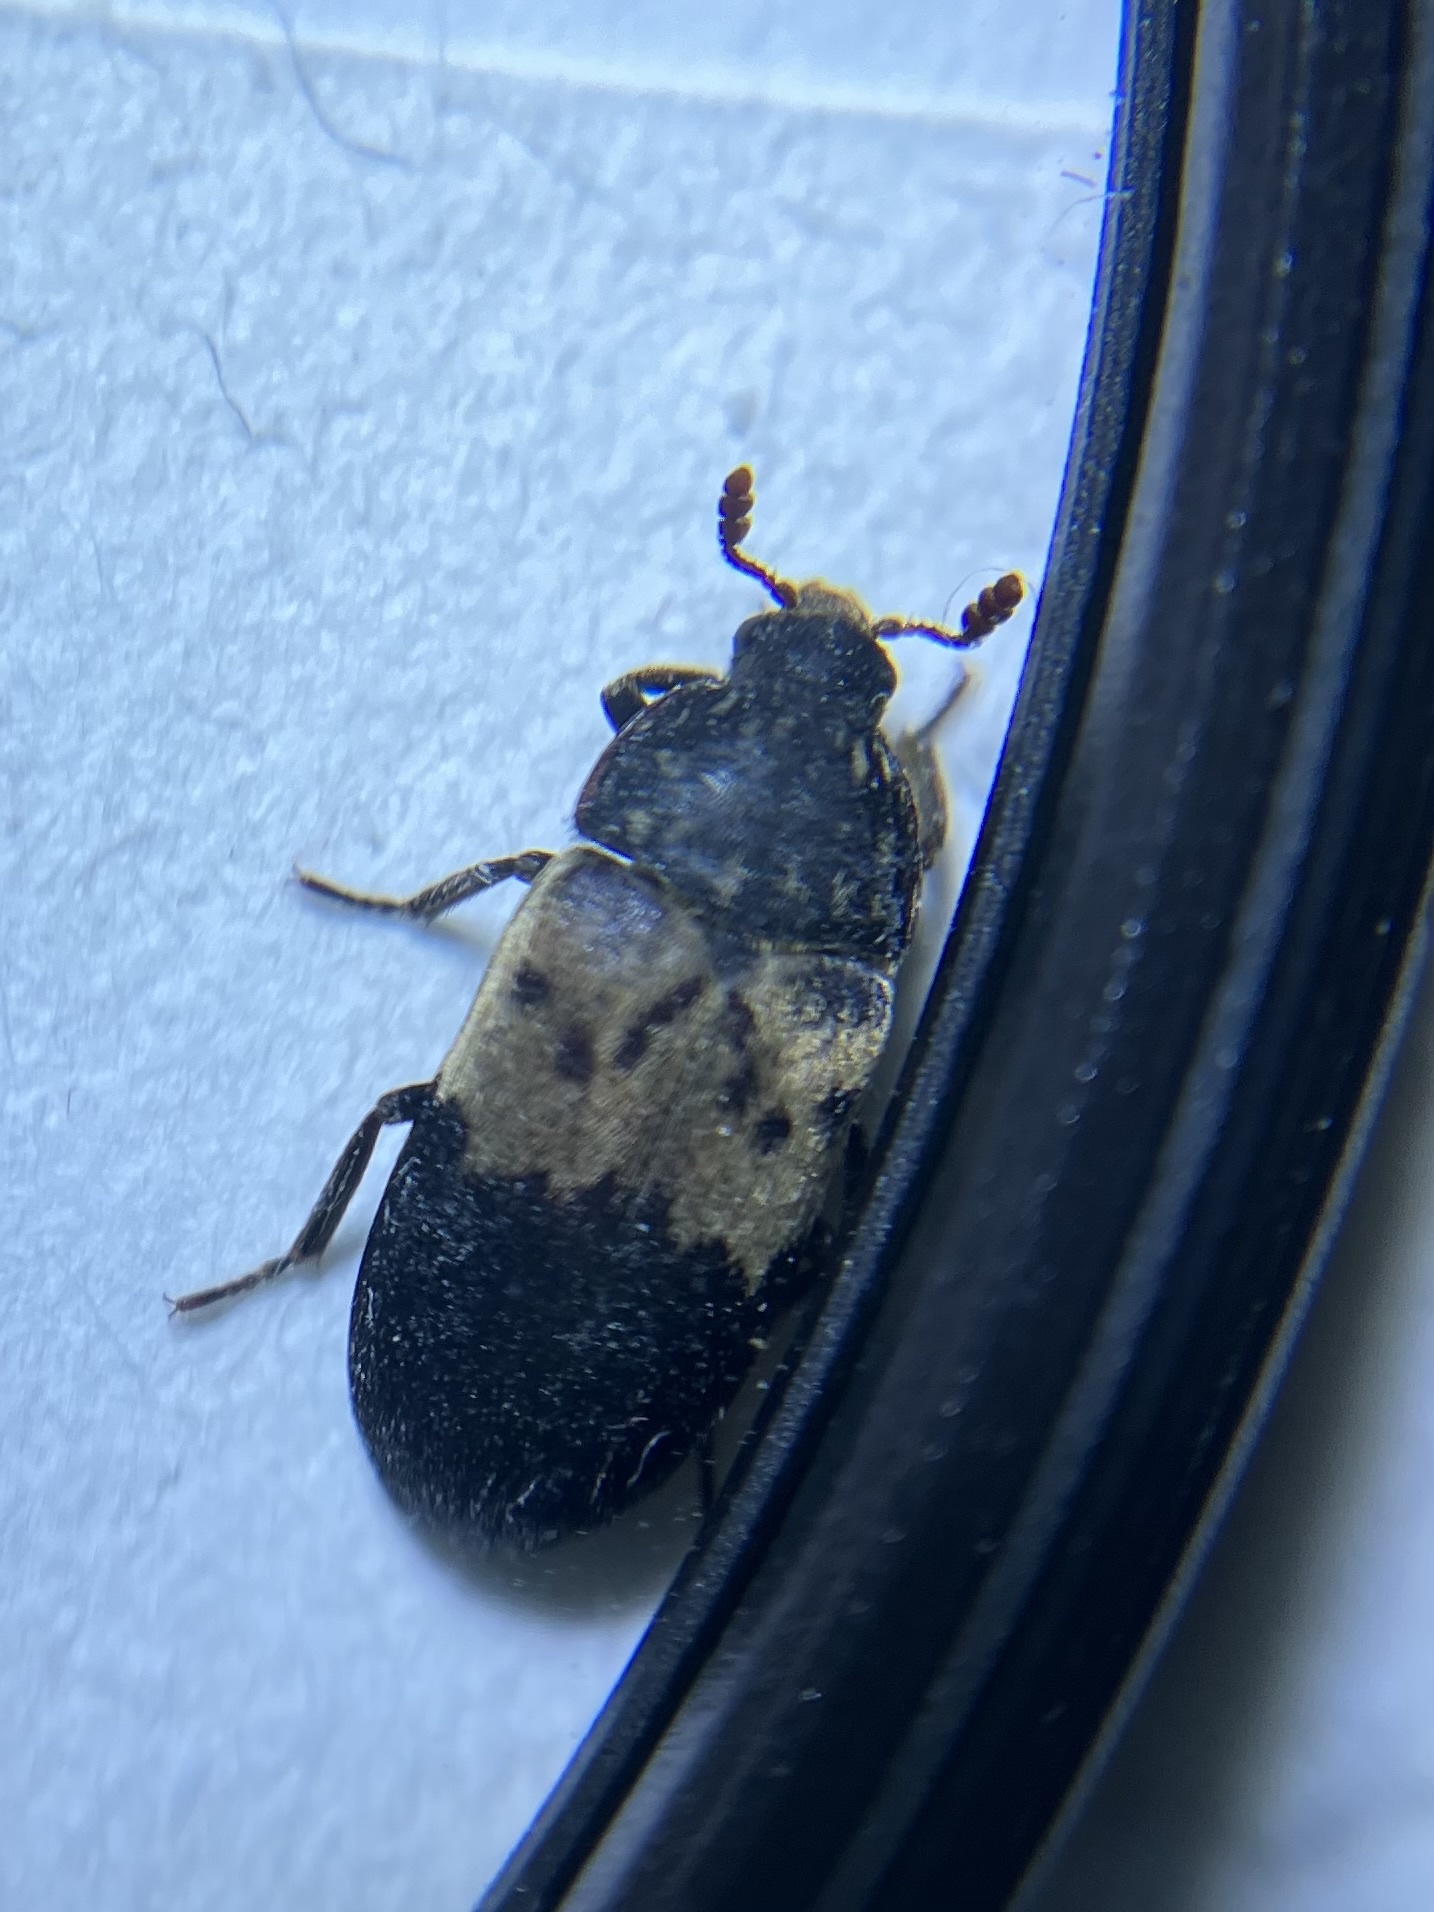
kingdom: Animalia
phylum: Arthropoda
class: Insecta
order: Coleoptera
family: Dermestidae
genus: Dermestes
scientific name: Dermestes lardarius
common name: Larder beetle
